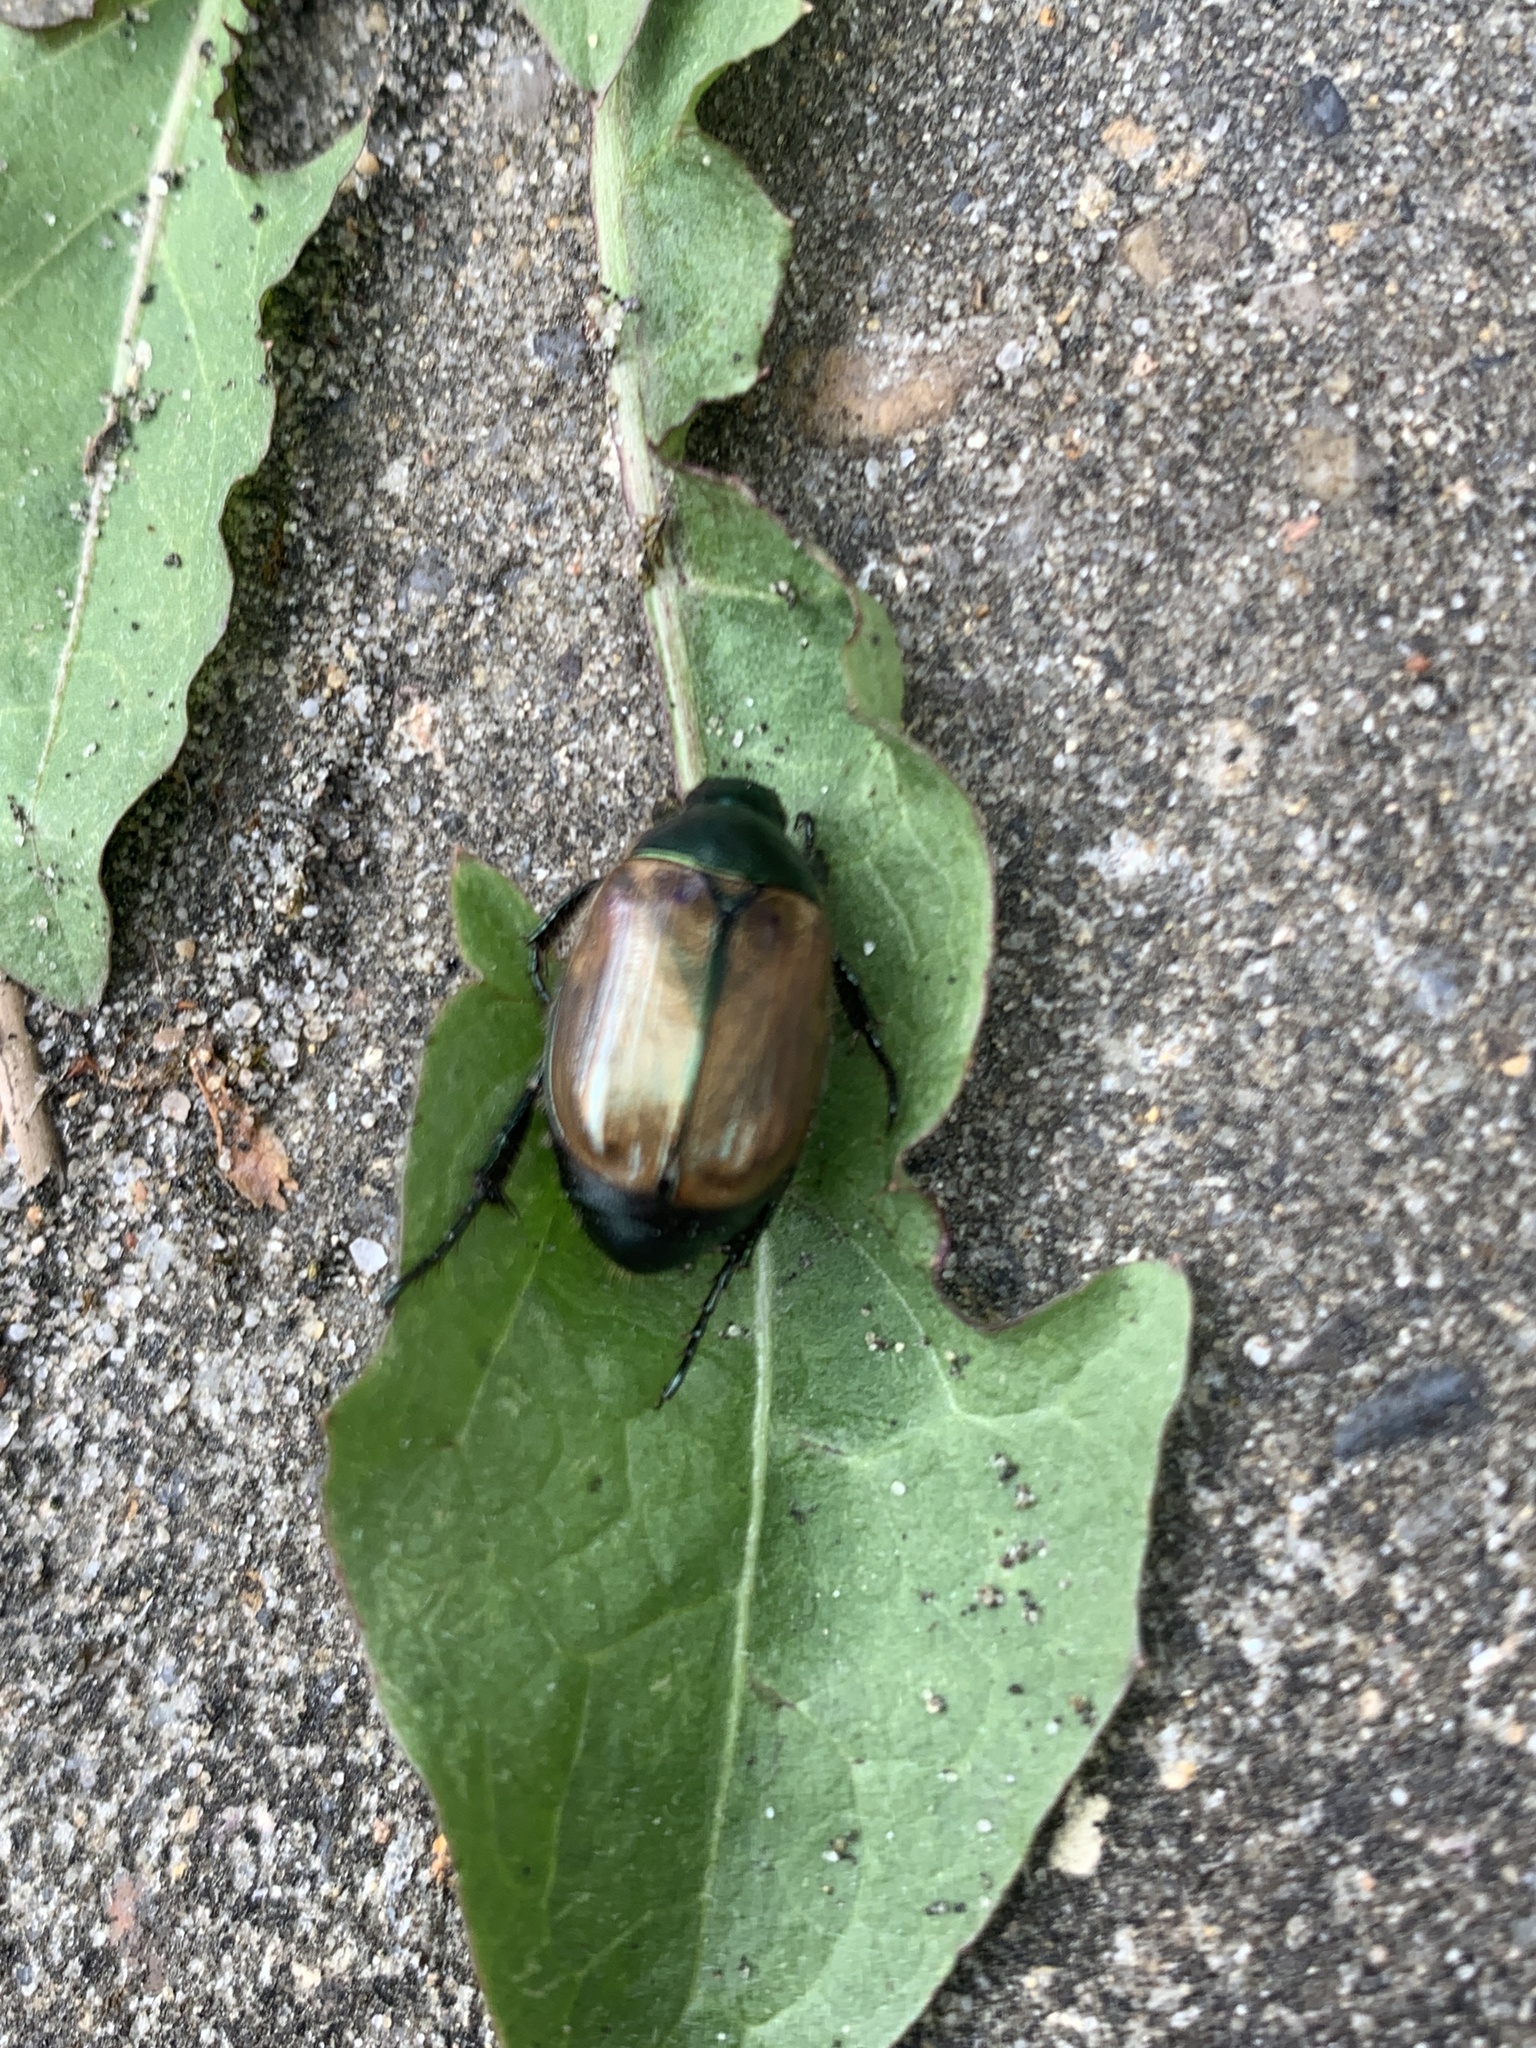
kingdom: Animalia
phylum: Arthropoda
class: Insecta
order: Coleoptera
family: Scarabaeidae
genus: Anomala
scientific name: Anomala dubia
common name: Dune chafer
